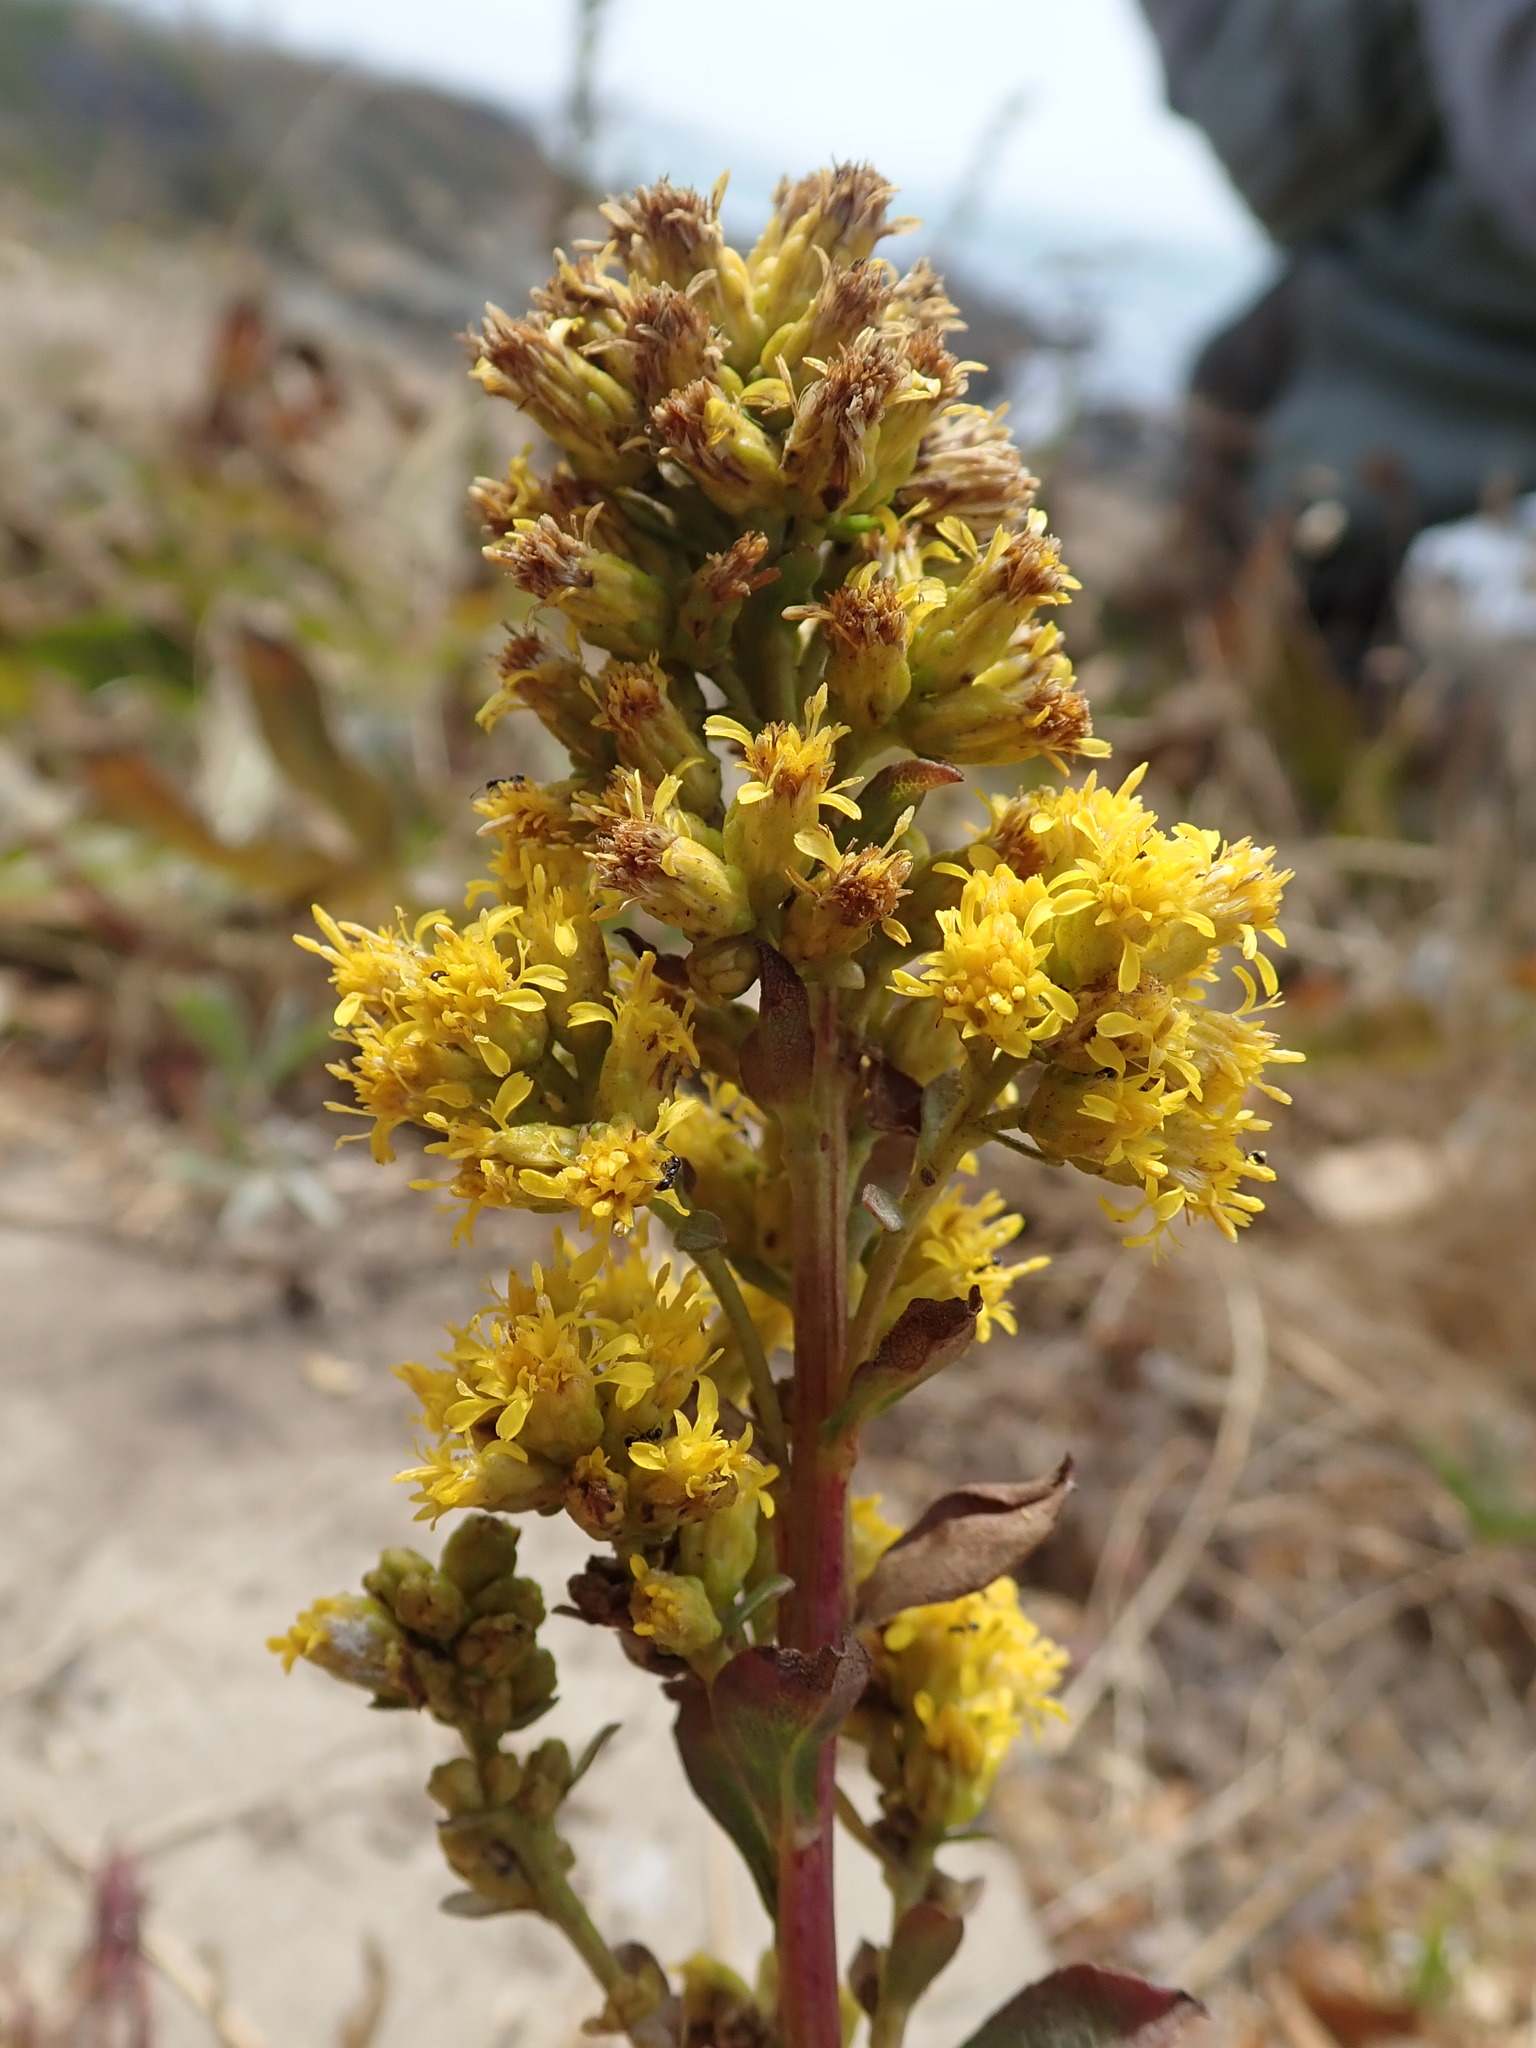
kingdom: Plantae
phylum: Tracheophyta
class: Magnoliopsida
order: Asterales
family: Asteraceae
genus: Solidago
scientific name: Solidago spathulata
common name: Coast goldenrod
